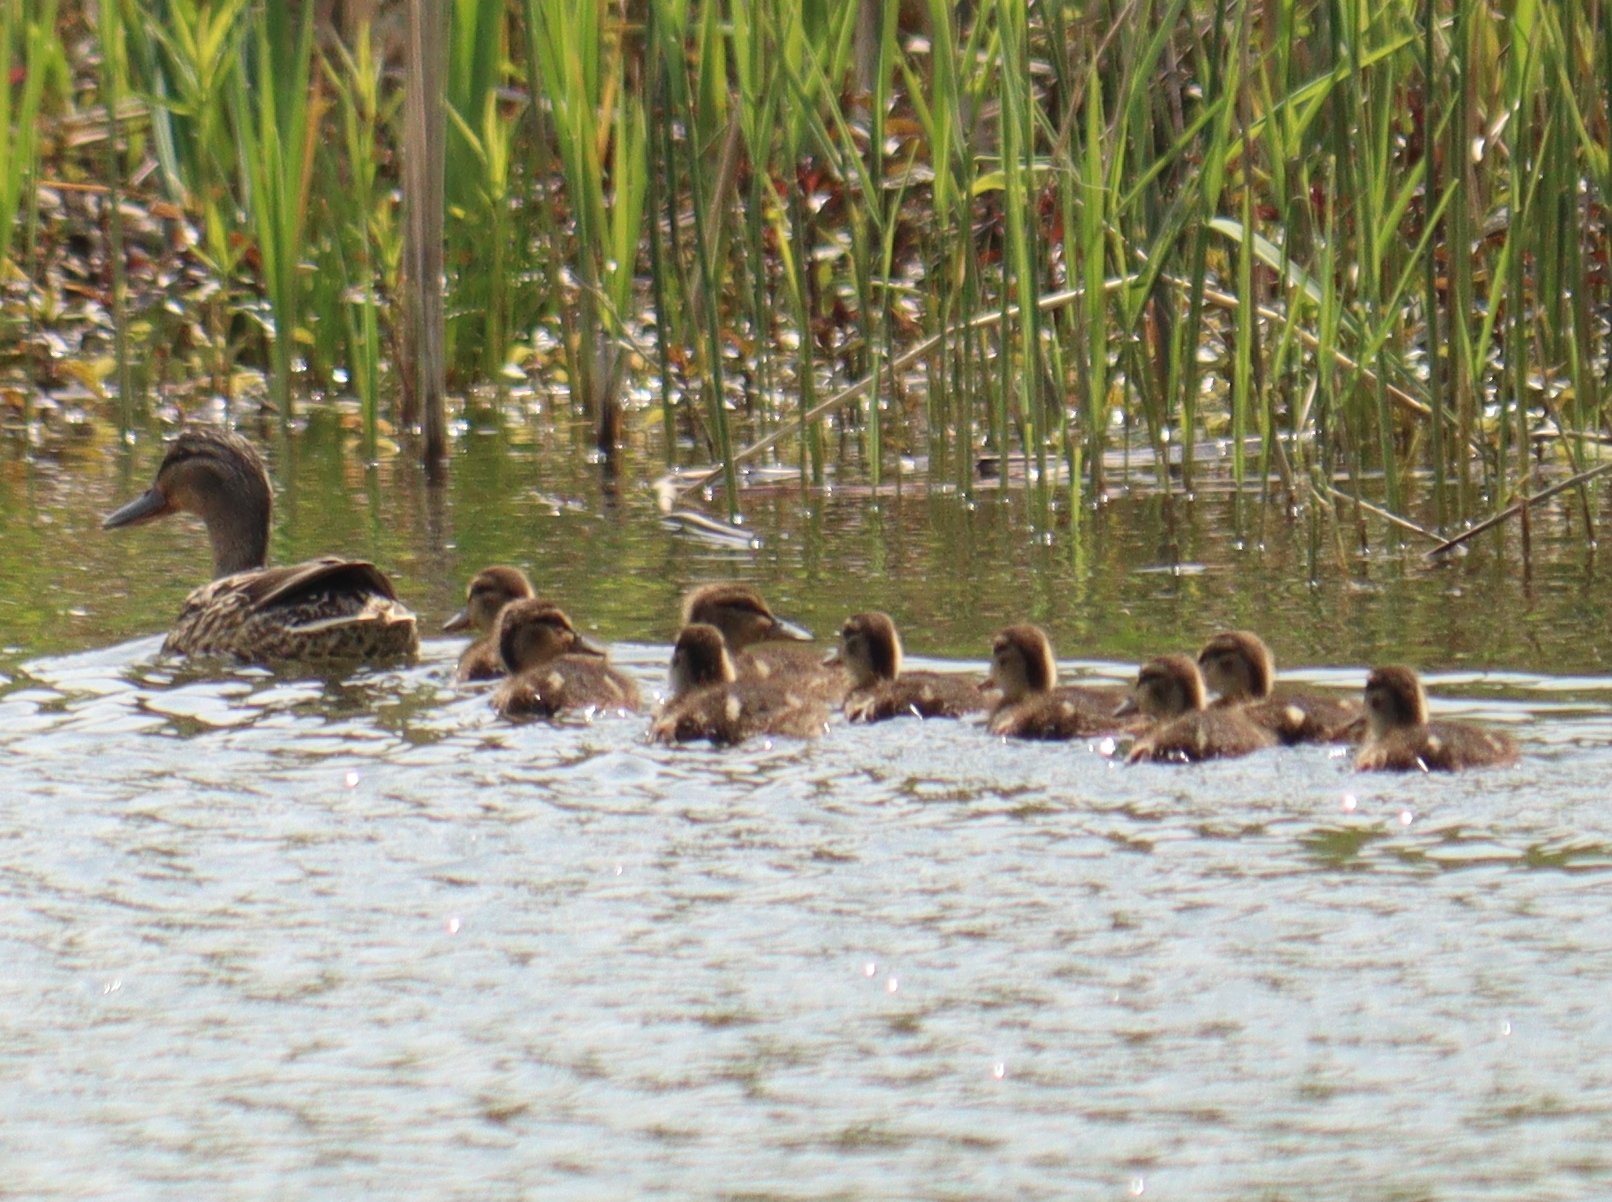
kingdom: Animalia
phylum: Chordata
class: Aves
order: Anseriformes
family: Anatidae
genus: Anas
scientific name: Anas platyrhynchos
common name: Mallard
